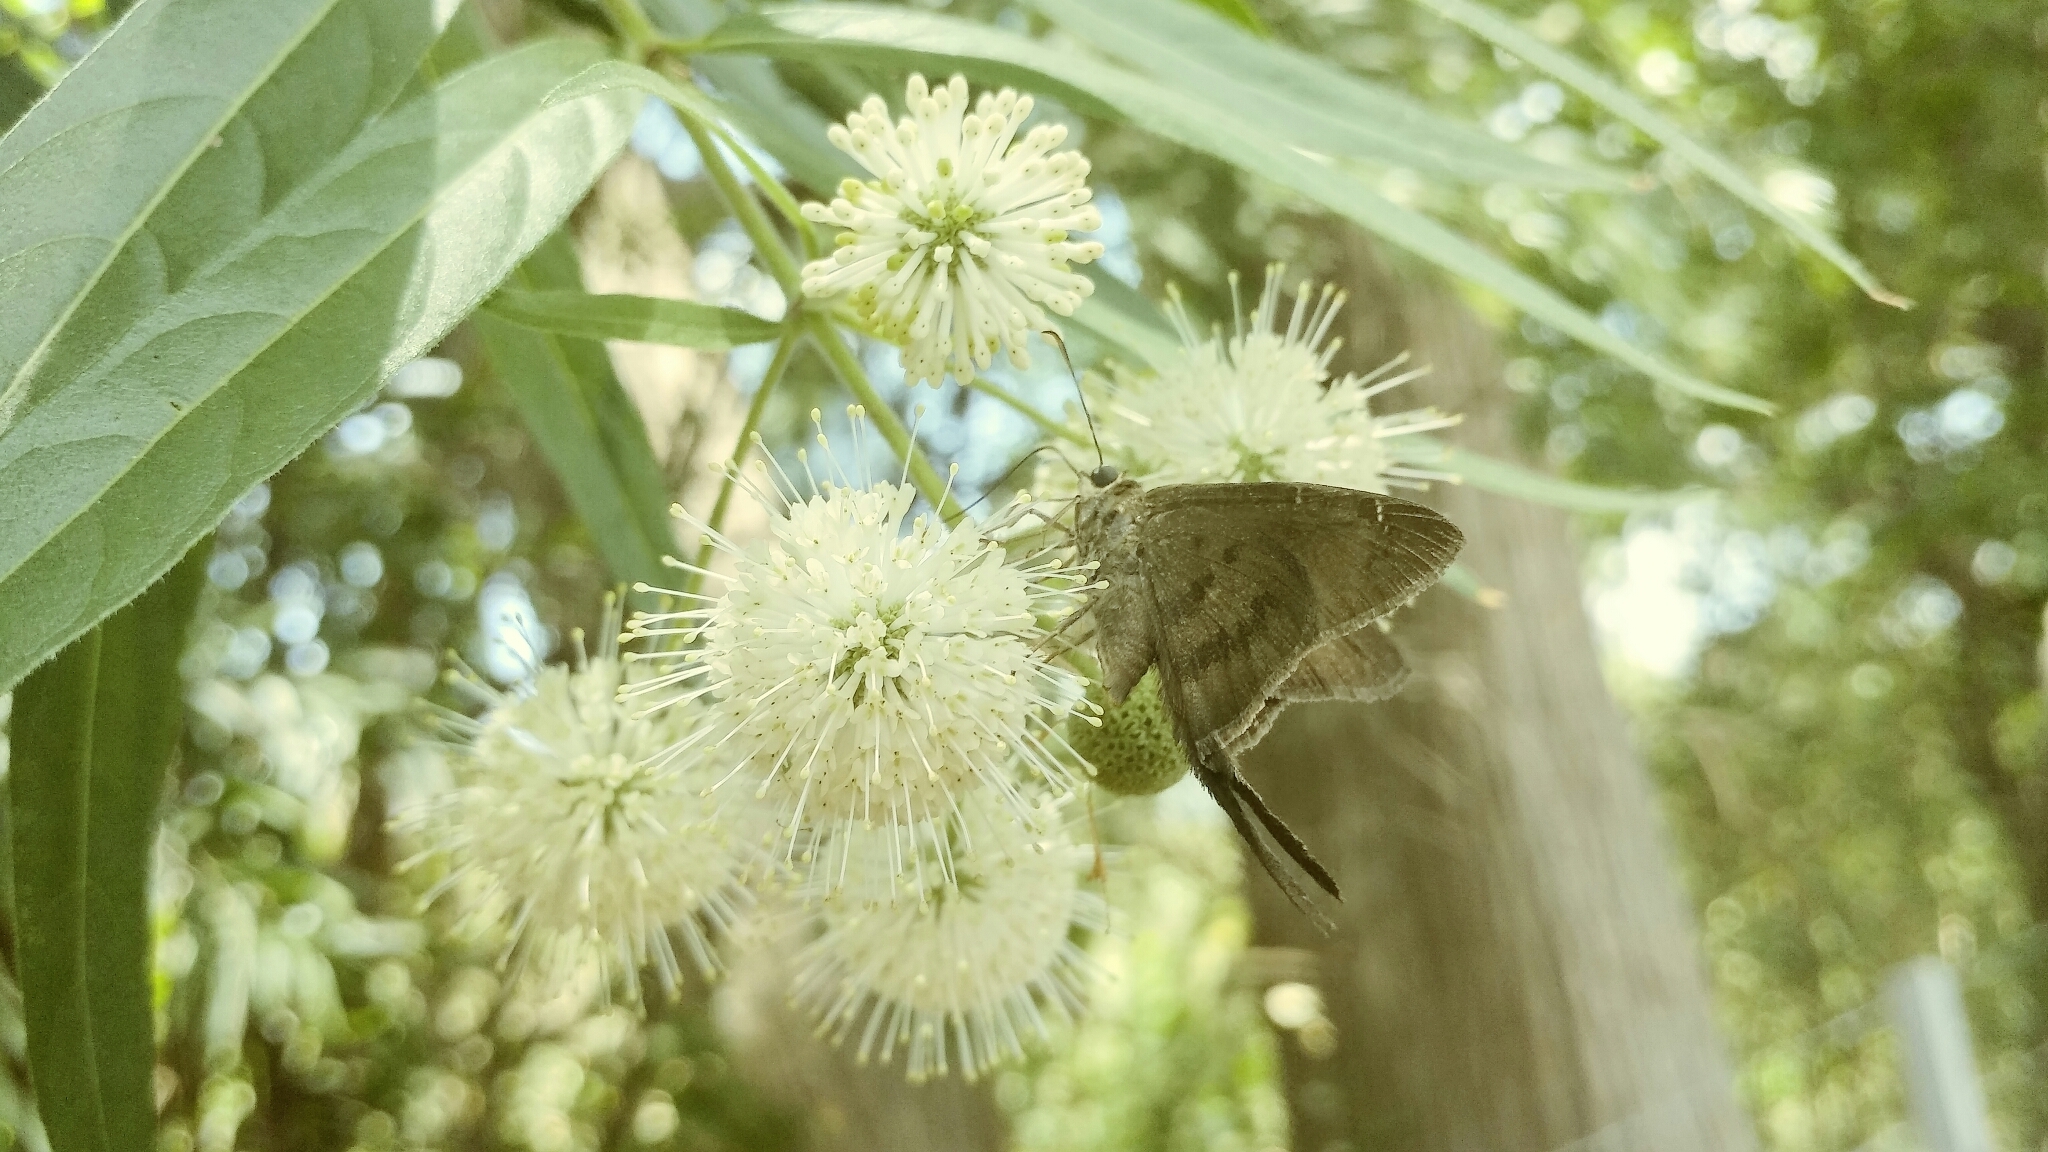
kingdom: Plantae
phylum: Tracheophyta
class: Magnoliopsida
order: Gentianales
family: Rubiaceae
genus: Cephalanthus
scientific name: Cephalanthus occidentalis
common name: Button-willow
